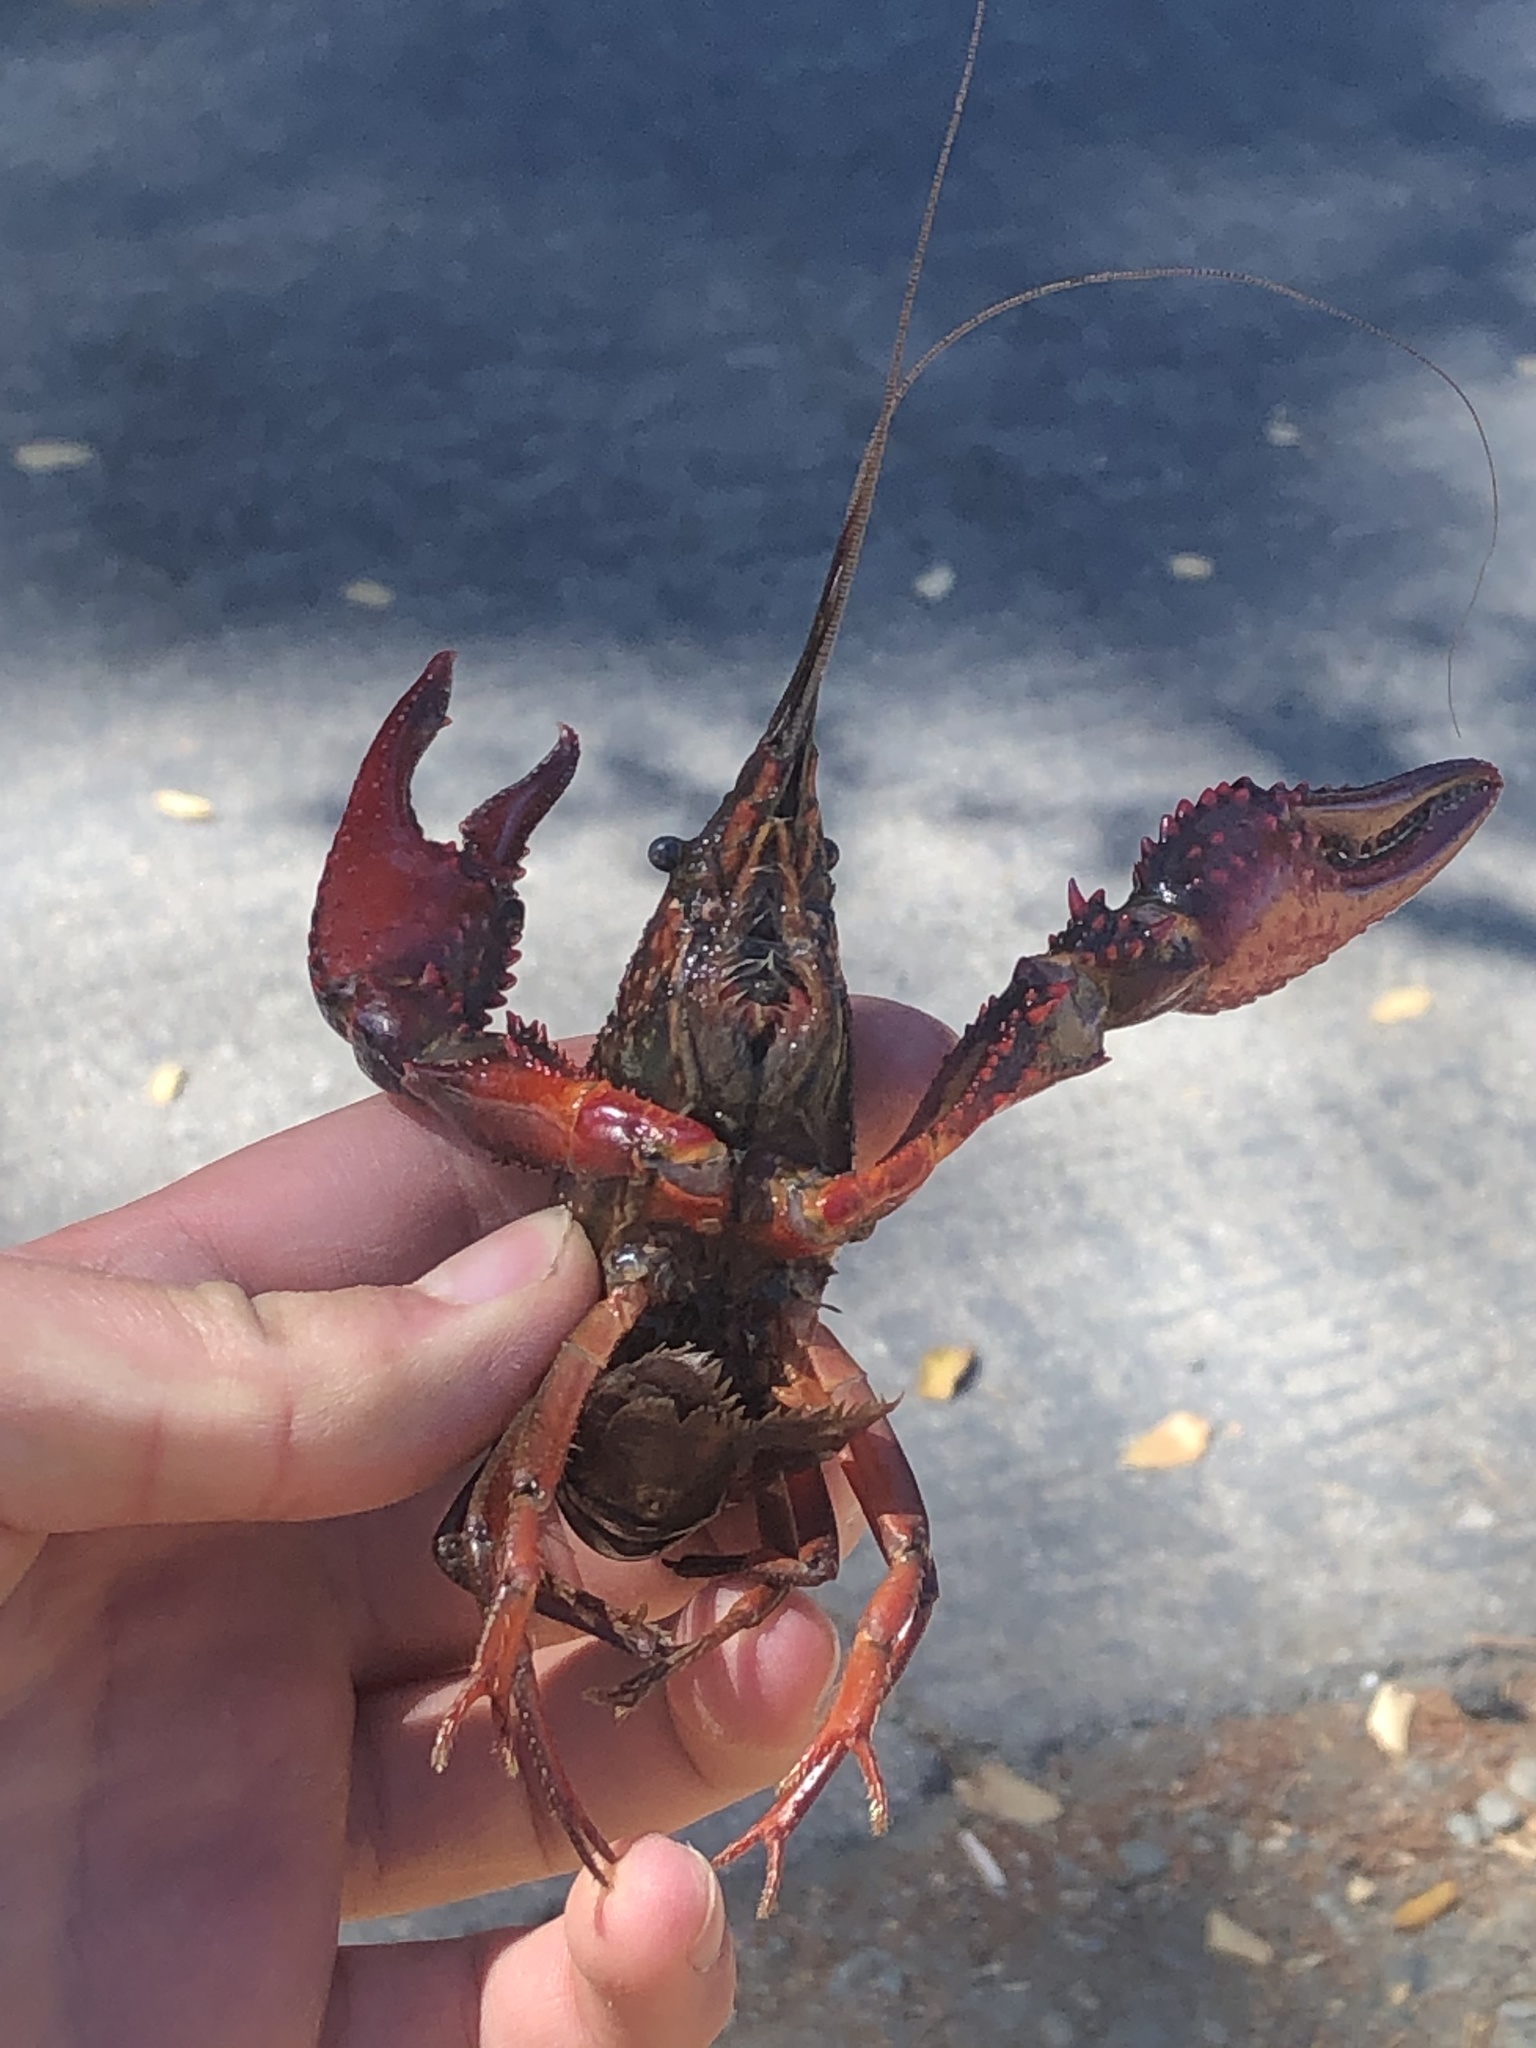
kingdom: Animalia
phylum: Arthropoda
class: Malacostraca
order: Decapoda
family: Cambaridae
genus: Procambarus
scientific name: Procambarus clarkii
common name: Red swamp crayfish
